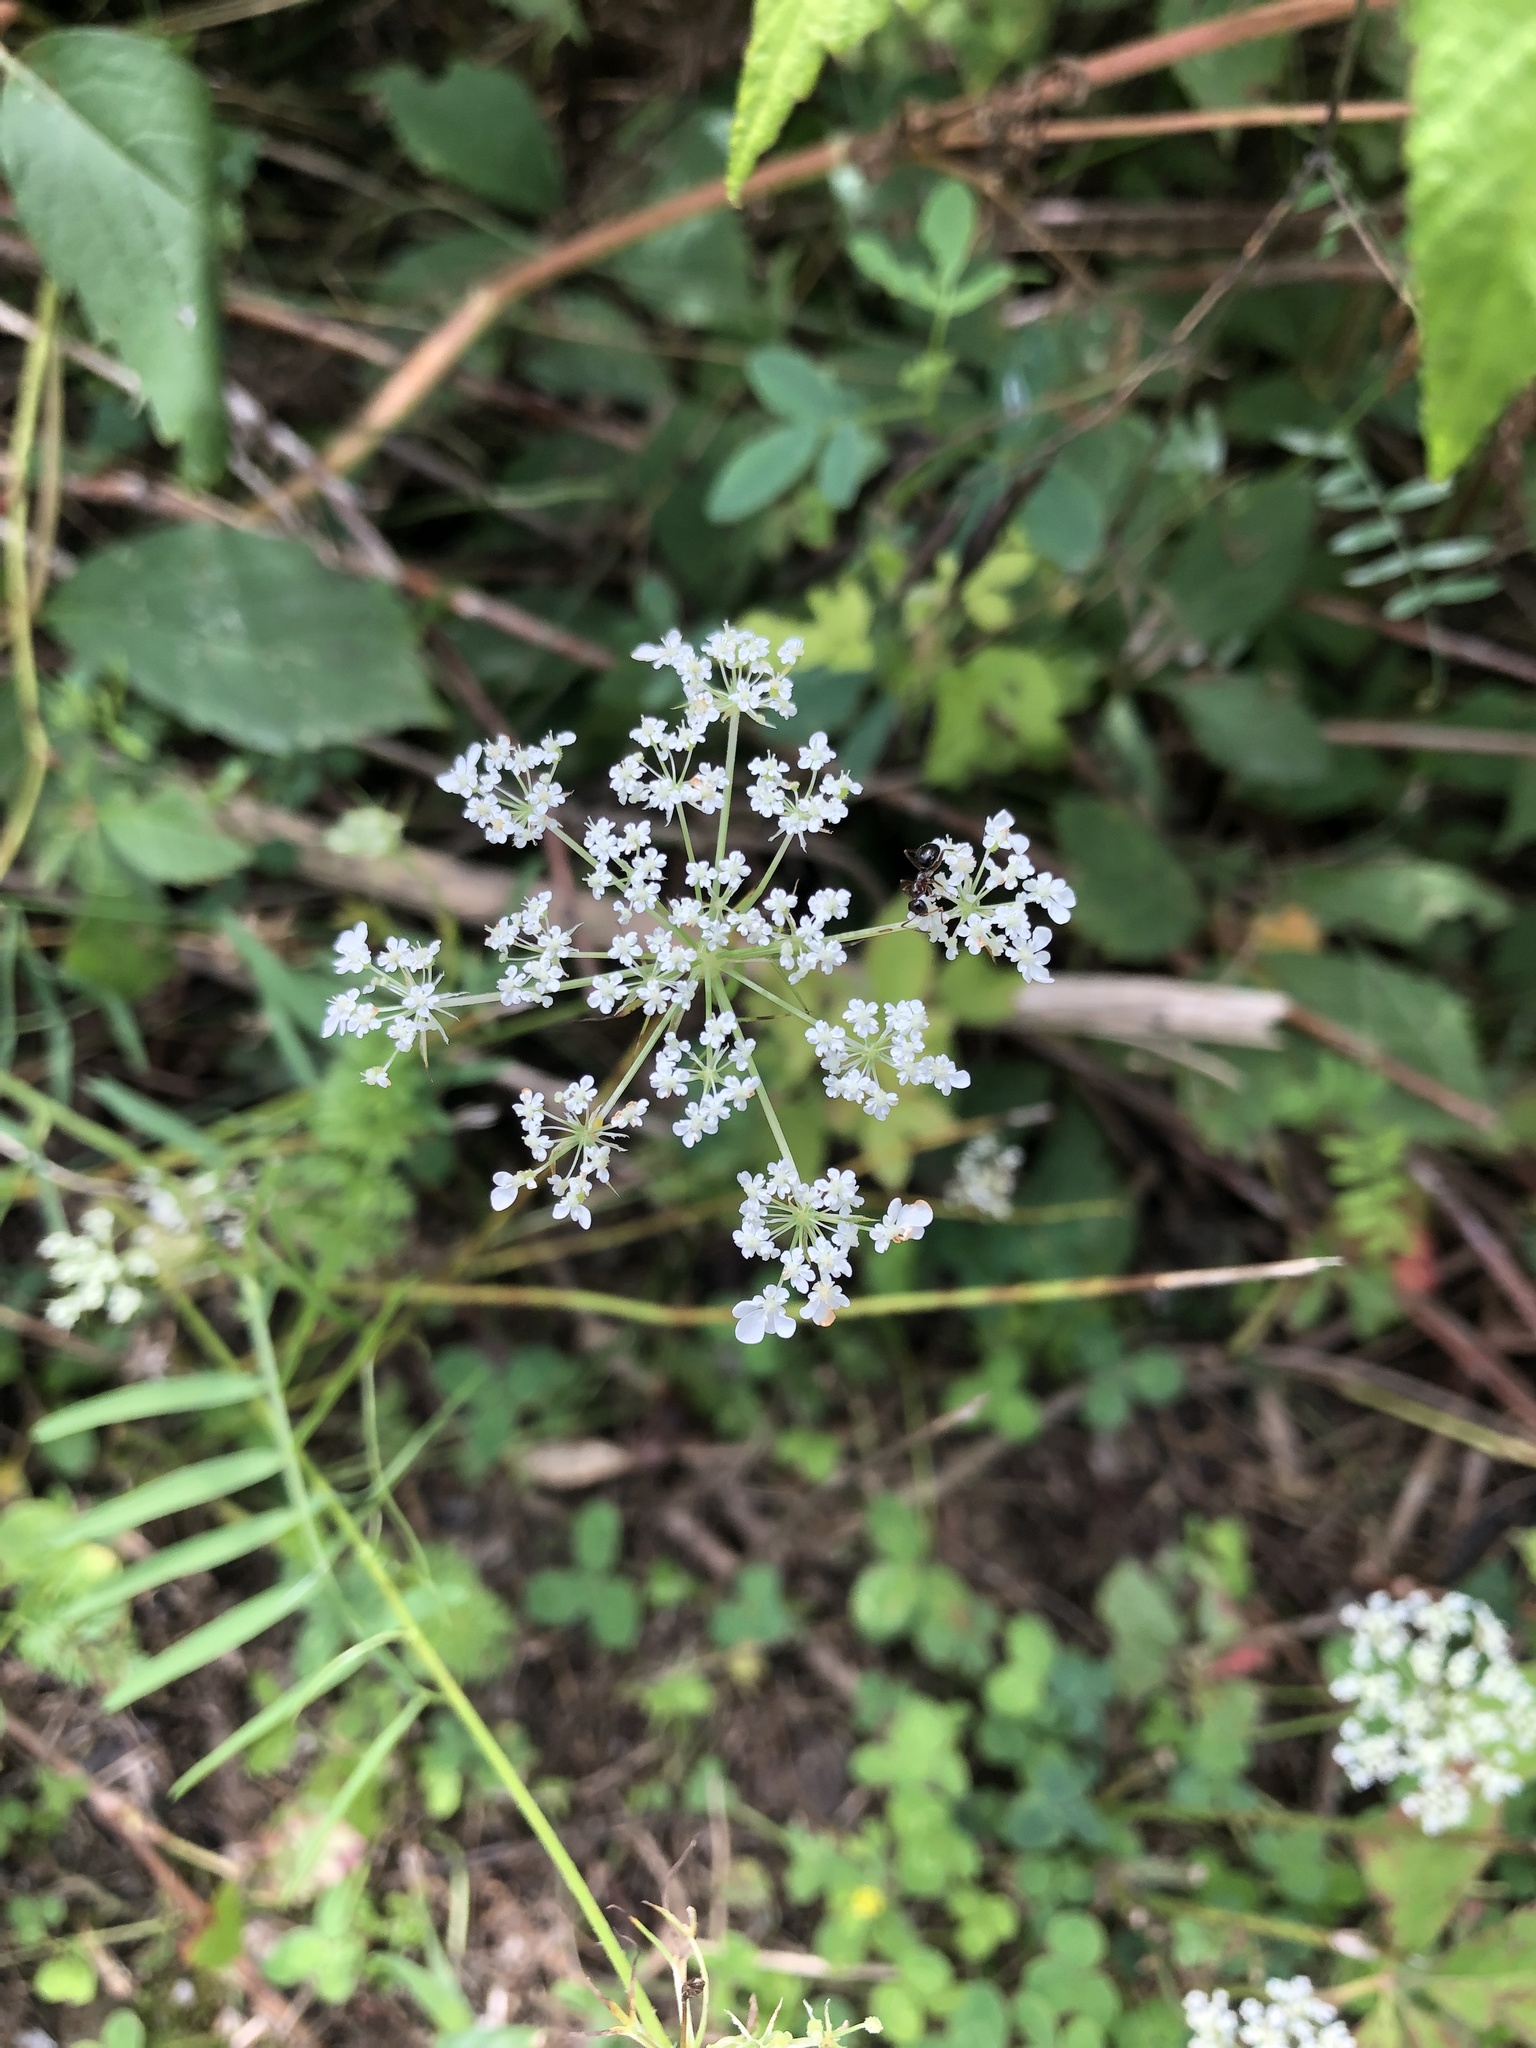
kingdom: Plantae
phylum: Tracheophyta
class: Magnoliopsida
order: Apiales
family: Apiaceae
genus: Daucus
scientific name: Daucus carota
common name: Wild carrot
